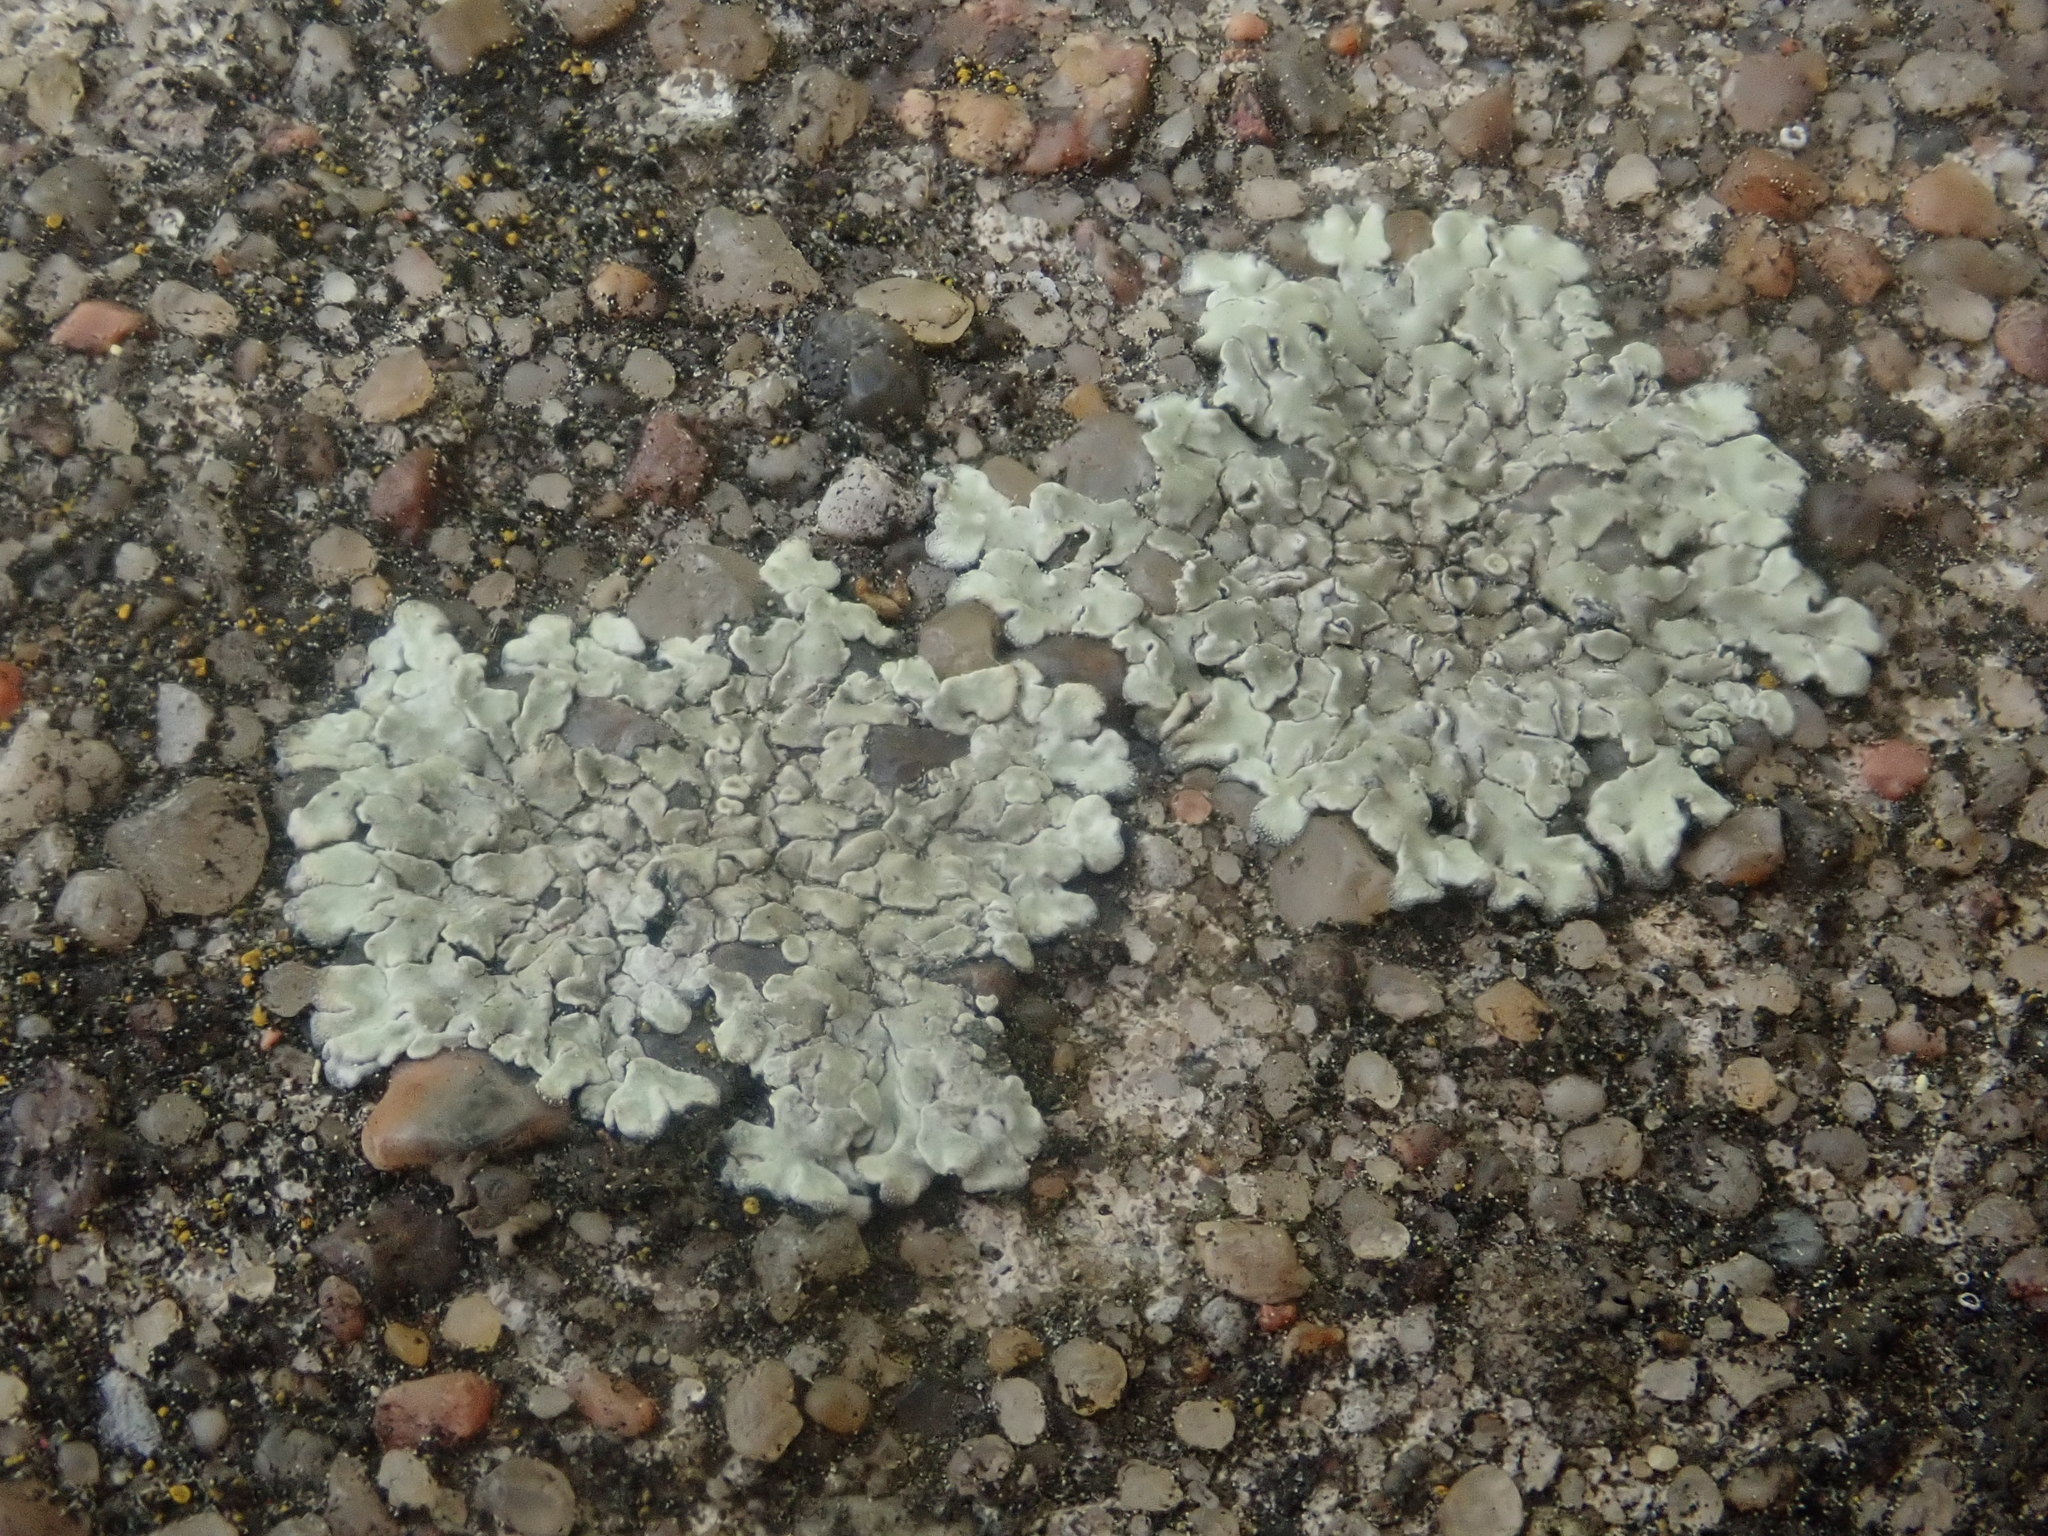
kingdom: Fungi
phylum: Ascomycota
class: Lecanoromycetes
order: Lecanorales
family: Lecanoraceae
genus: Protoparmeliopsis
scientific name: Protoparmeliopsis muralis
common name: Stonewall rim lichen
